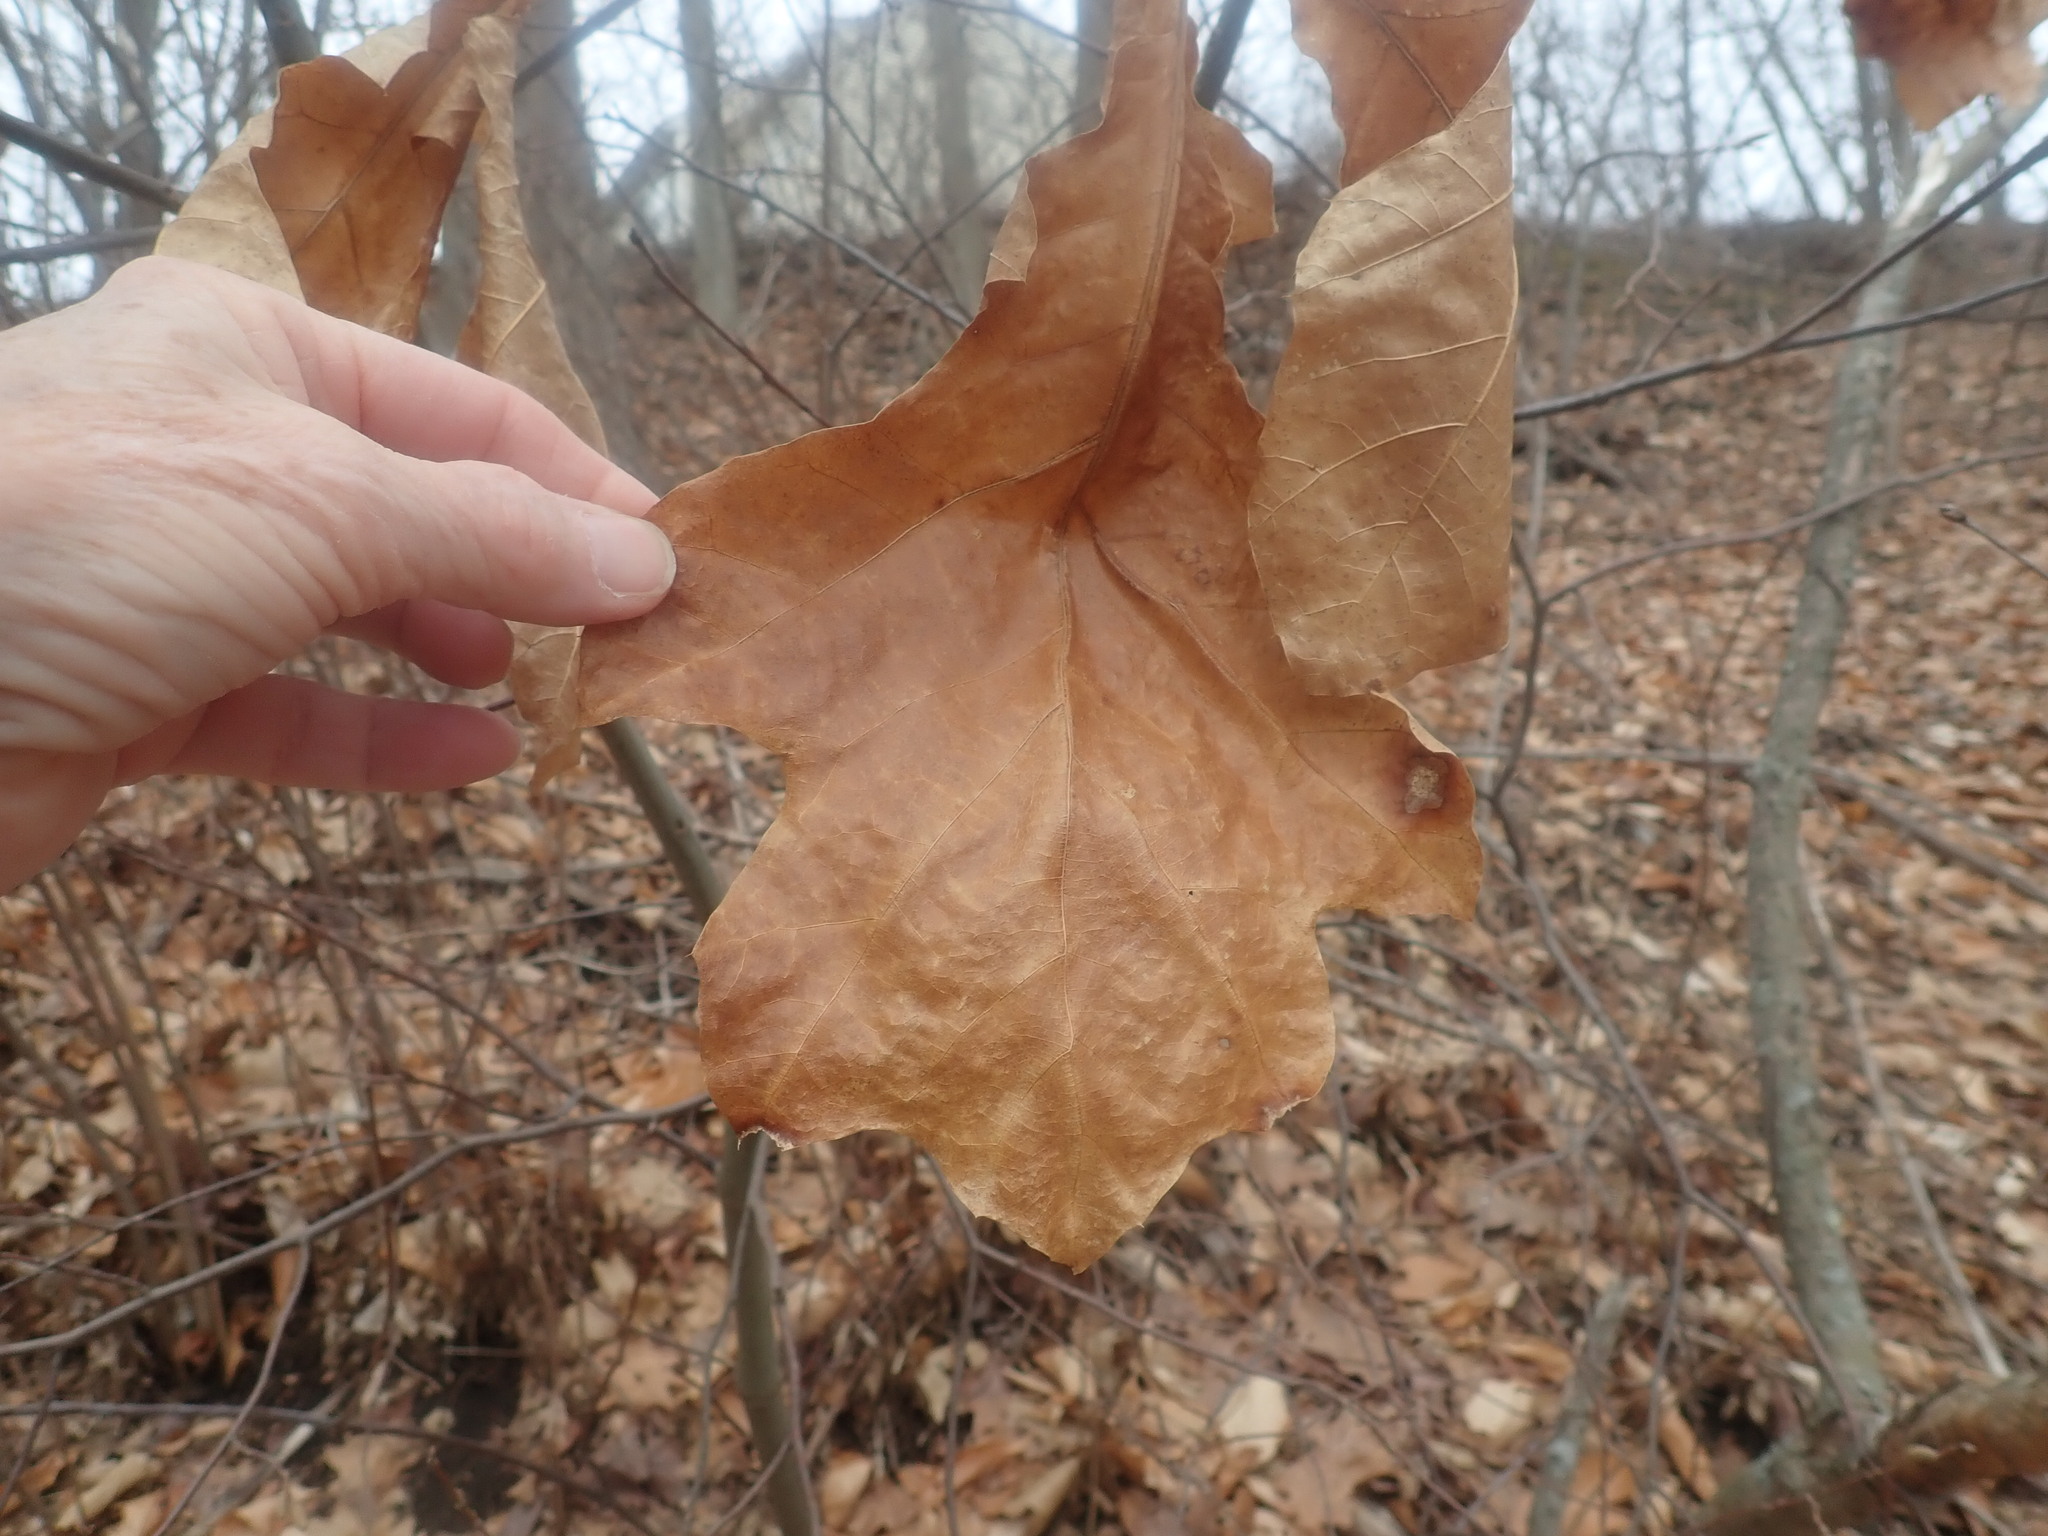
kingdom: Plantae
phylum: Tracheophyta
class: Magnoliopsida
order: Fagales
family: Fagaceae
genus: Quercus
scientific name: Quercus velutina
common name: Black oak
